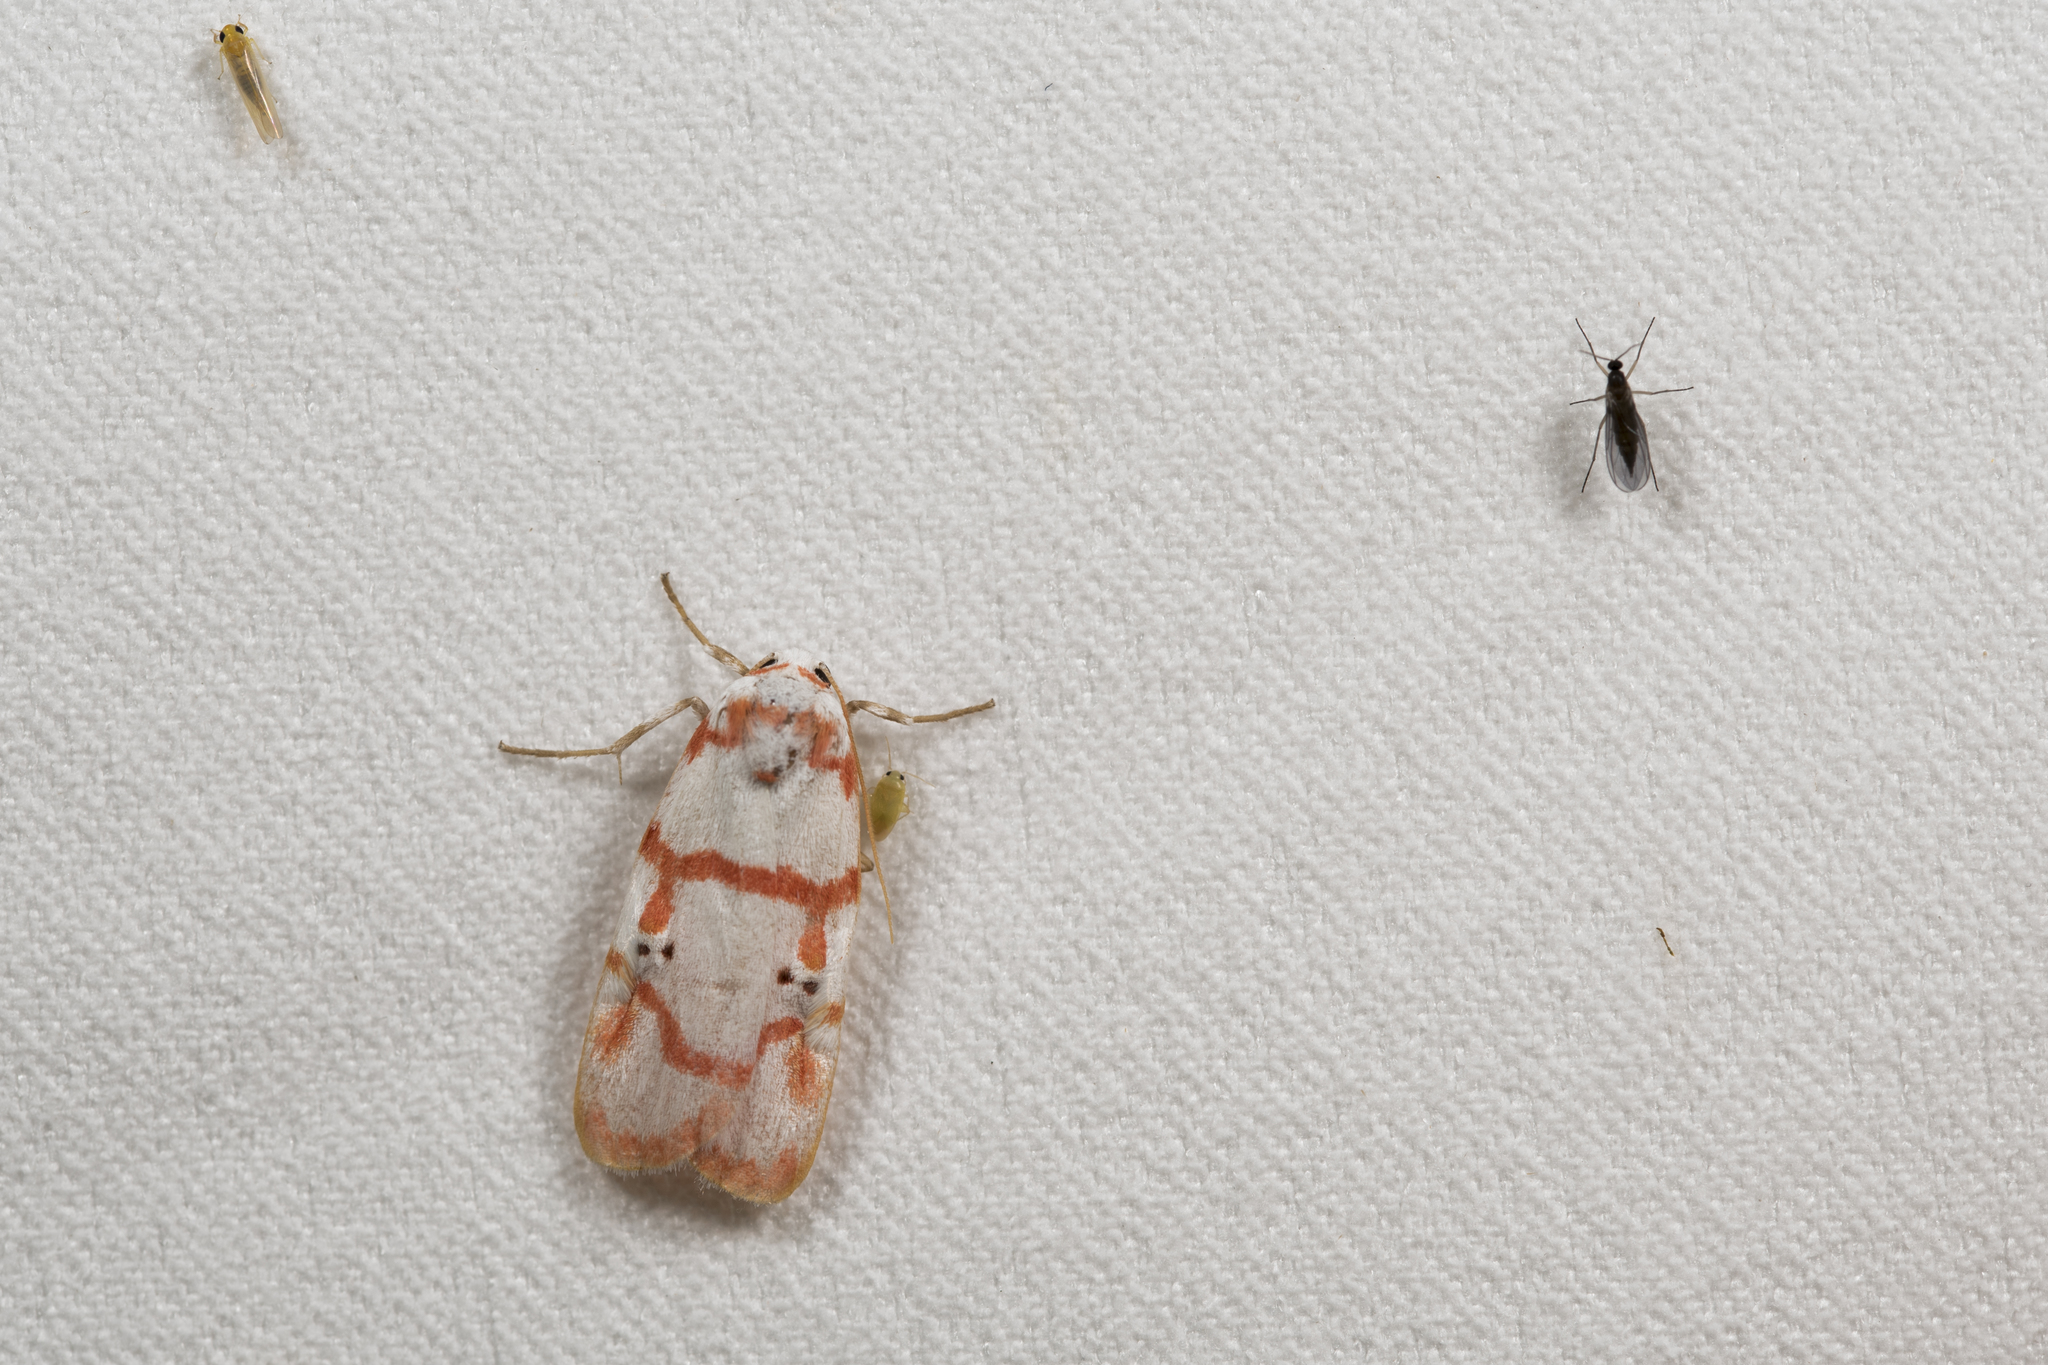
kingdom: Animalia
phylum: Arthropoda
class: Insecta
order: Lepidoptera
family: Erebidae
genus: Cyana
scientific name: Cyana hamata
